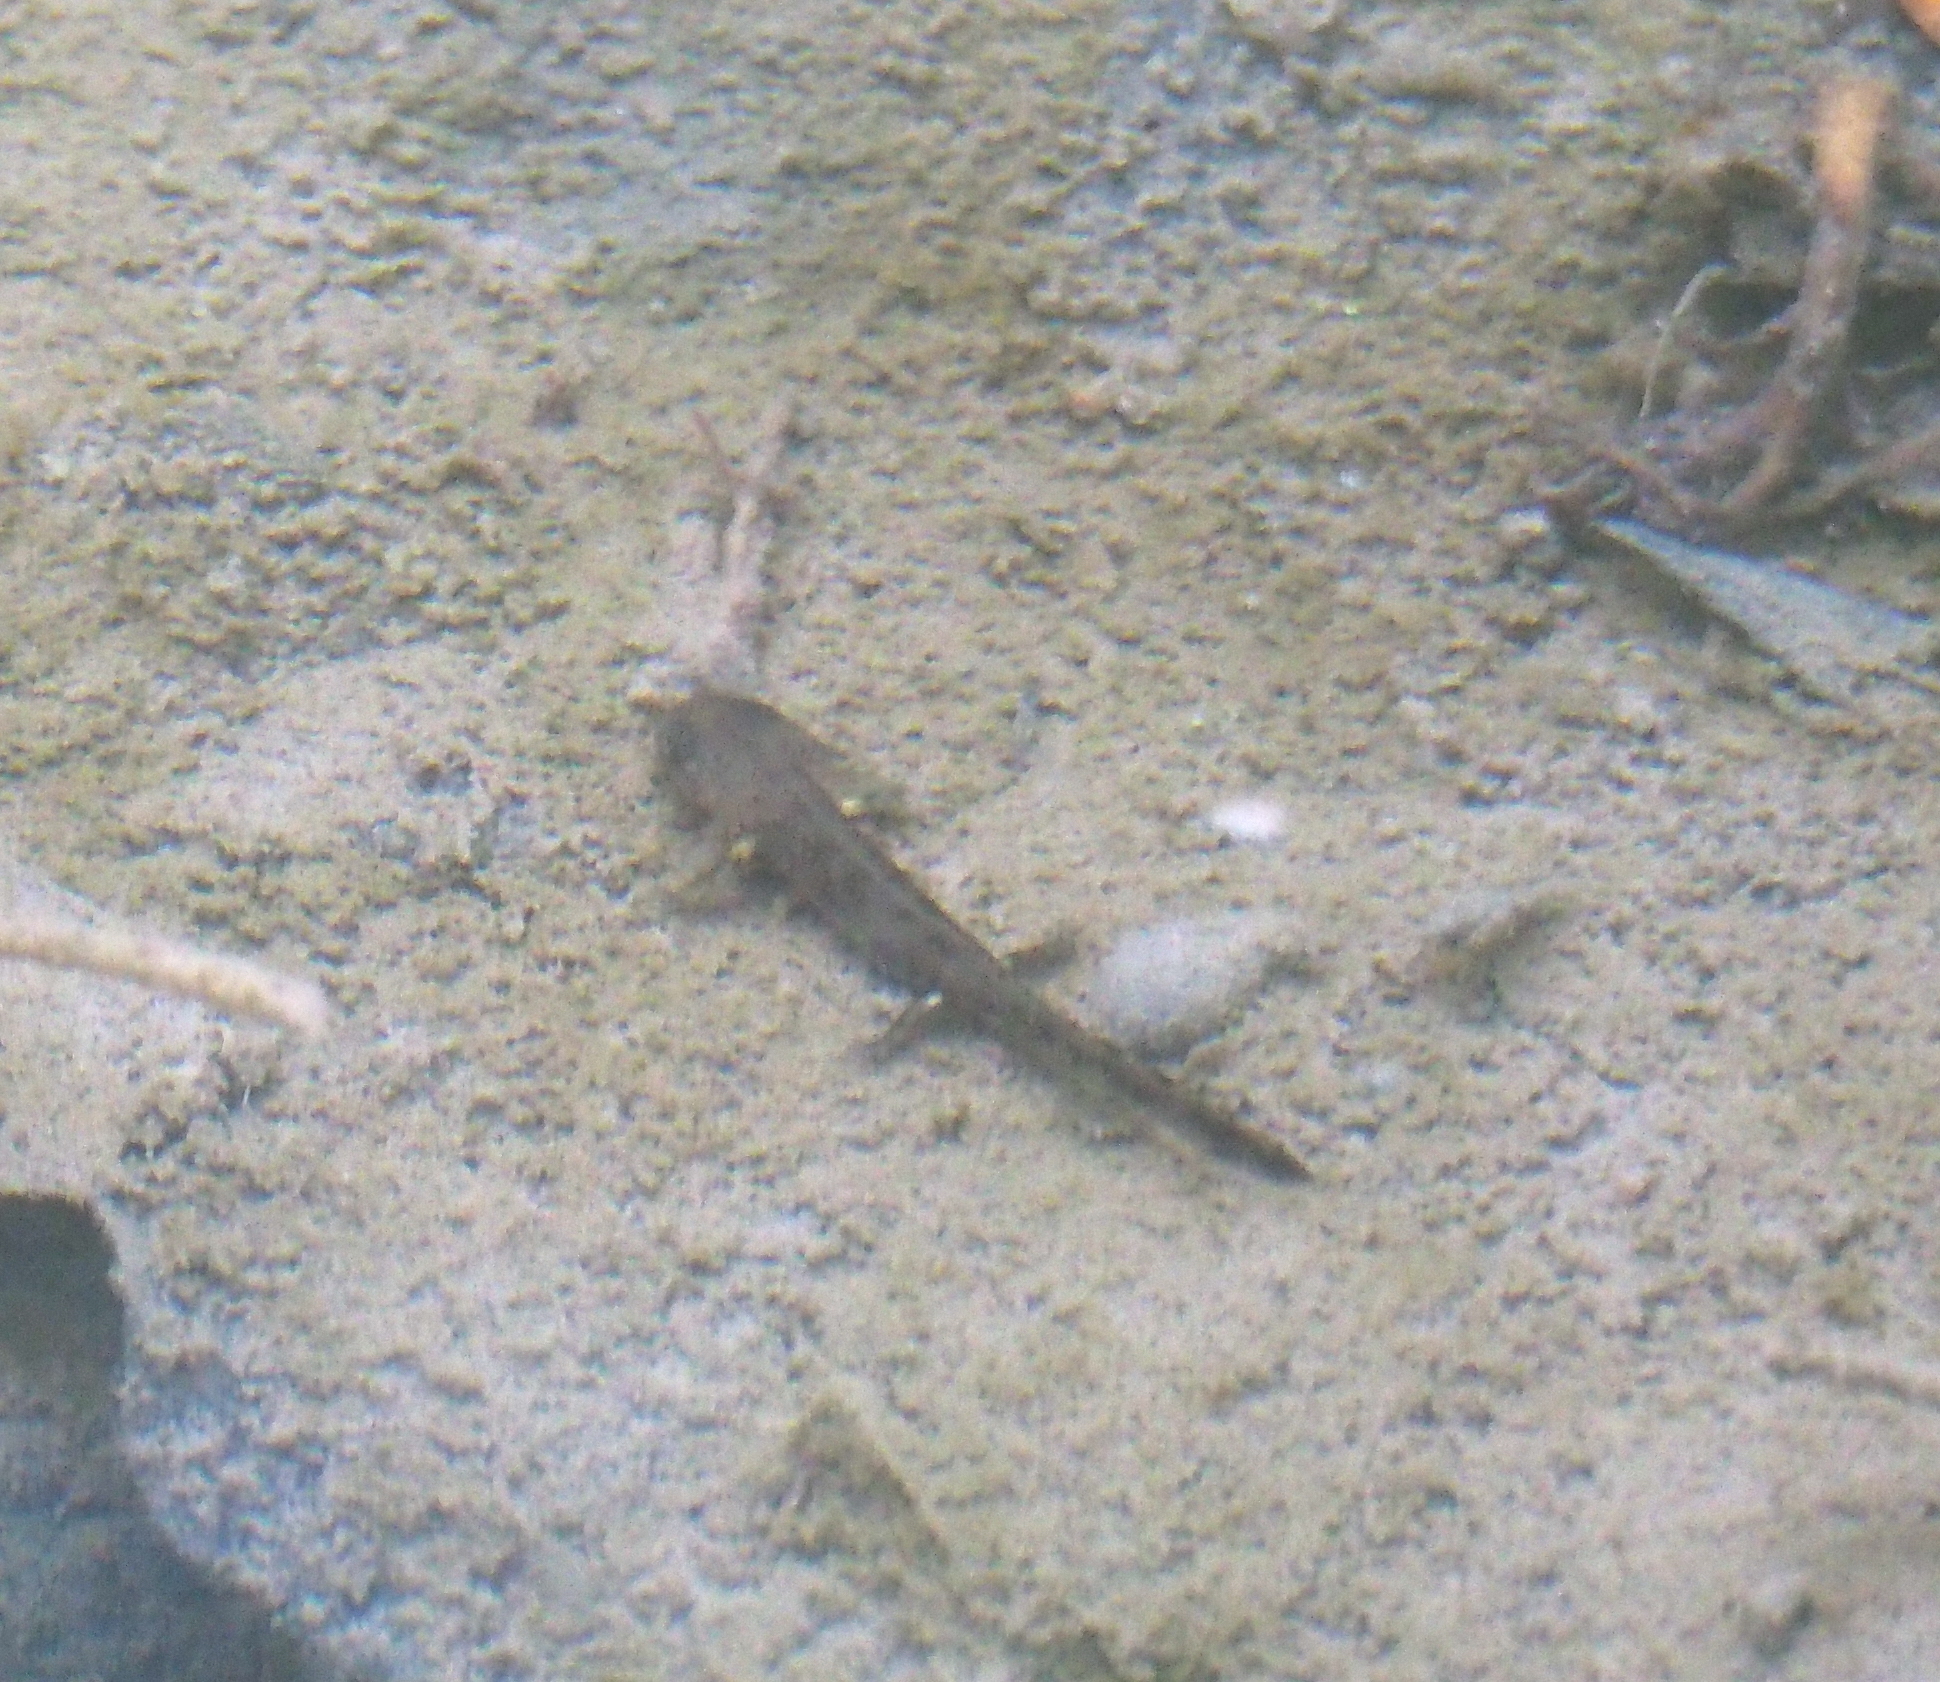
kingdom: Animalia
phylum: Chordata
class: Amphibia
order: Caudata
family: Salamandridae
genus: Salamandra
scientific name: Salamandra salamandra
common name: Fire salamander
